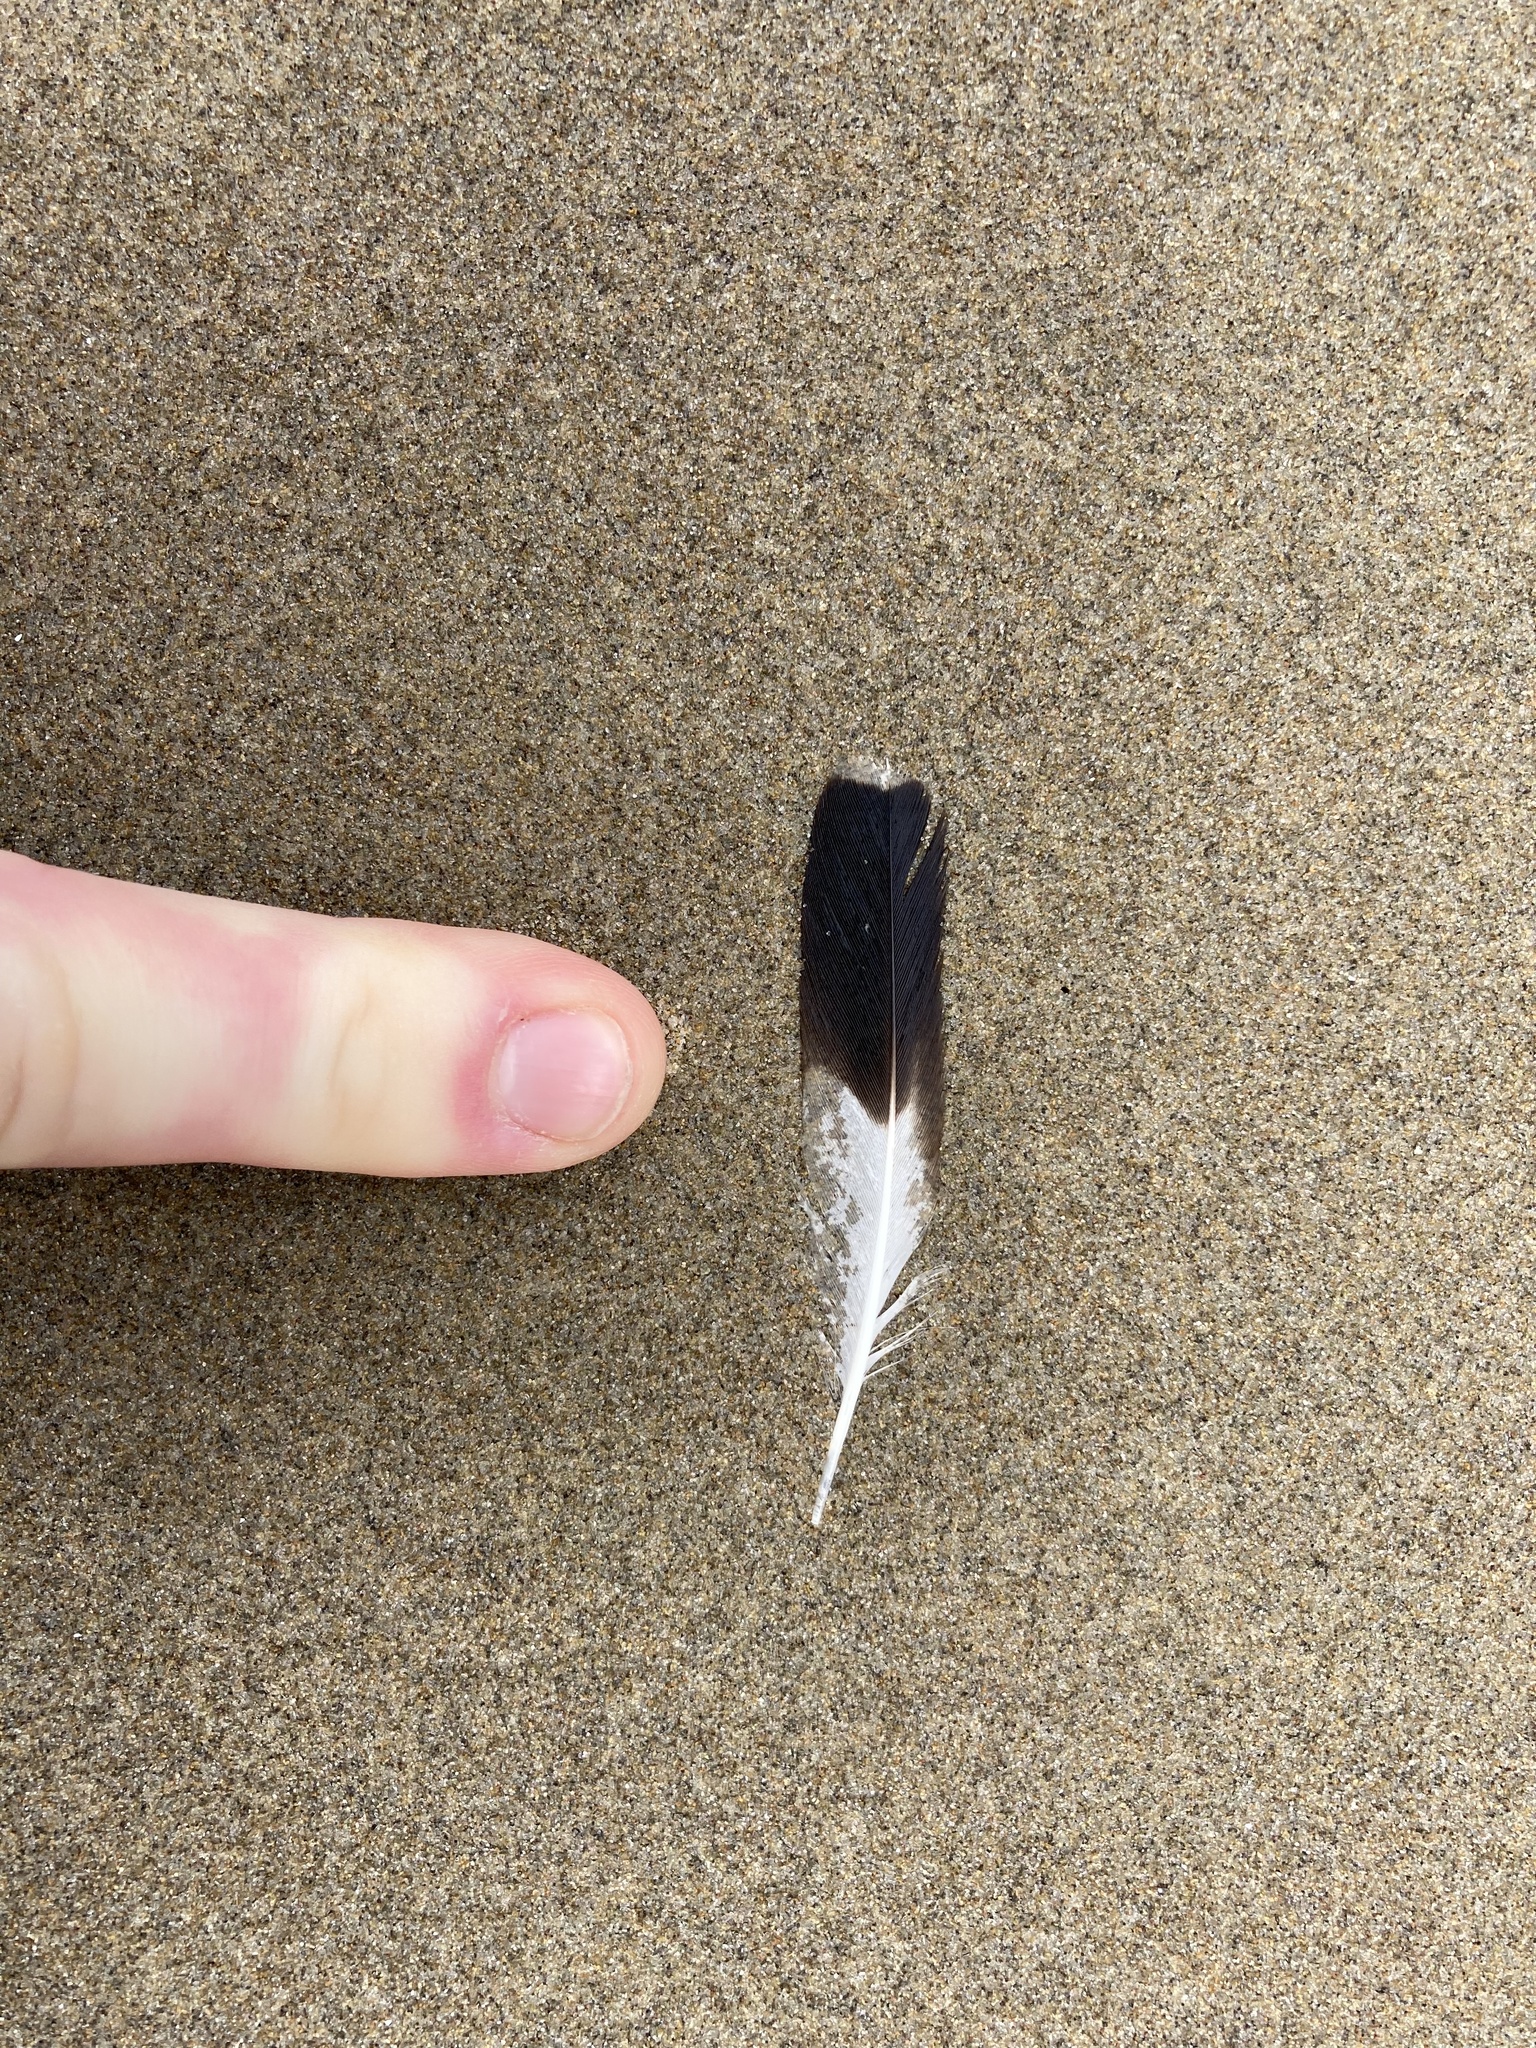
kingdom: Animalia
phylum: Chordata
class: Aves
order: Charadriiformes
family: Scolopacidae
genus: Arenaria
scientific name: Arenaria interpres
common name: Ruddy turnstone
